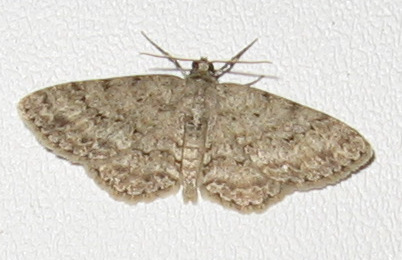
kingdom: Animalia
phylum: Arthropoda
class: Insecta
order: Lepidoptera
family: Geometridae
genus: Ectropis
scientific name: Ectropis crepuscularia
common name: Engrailed
